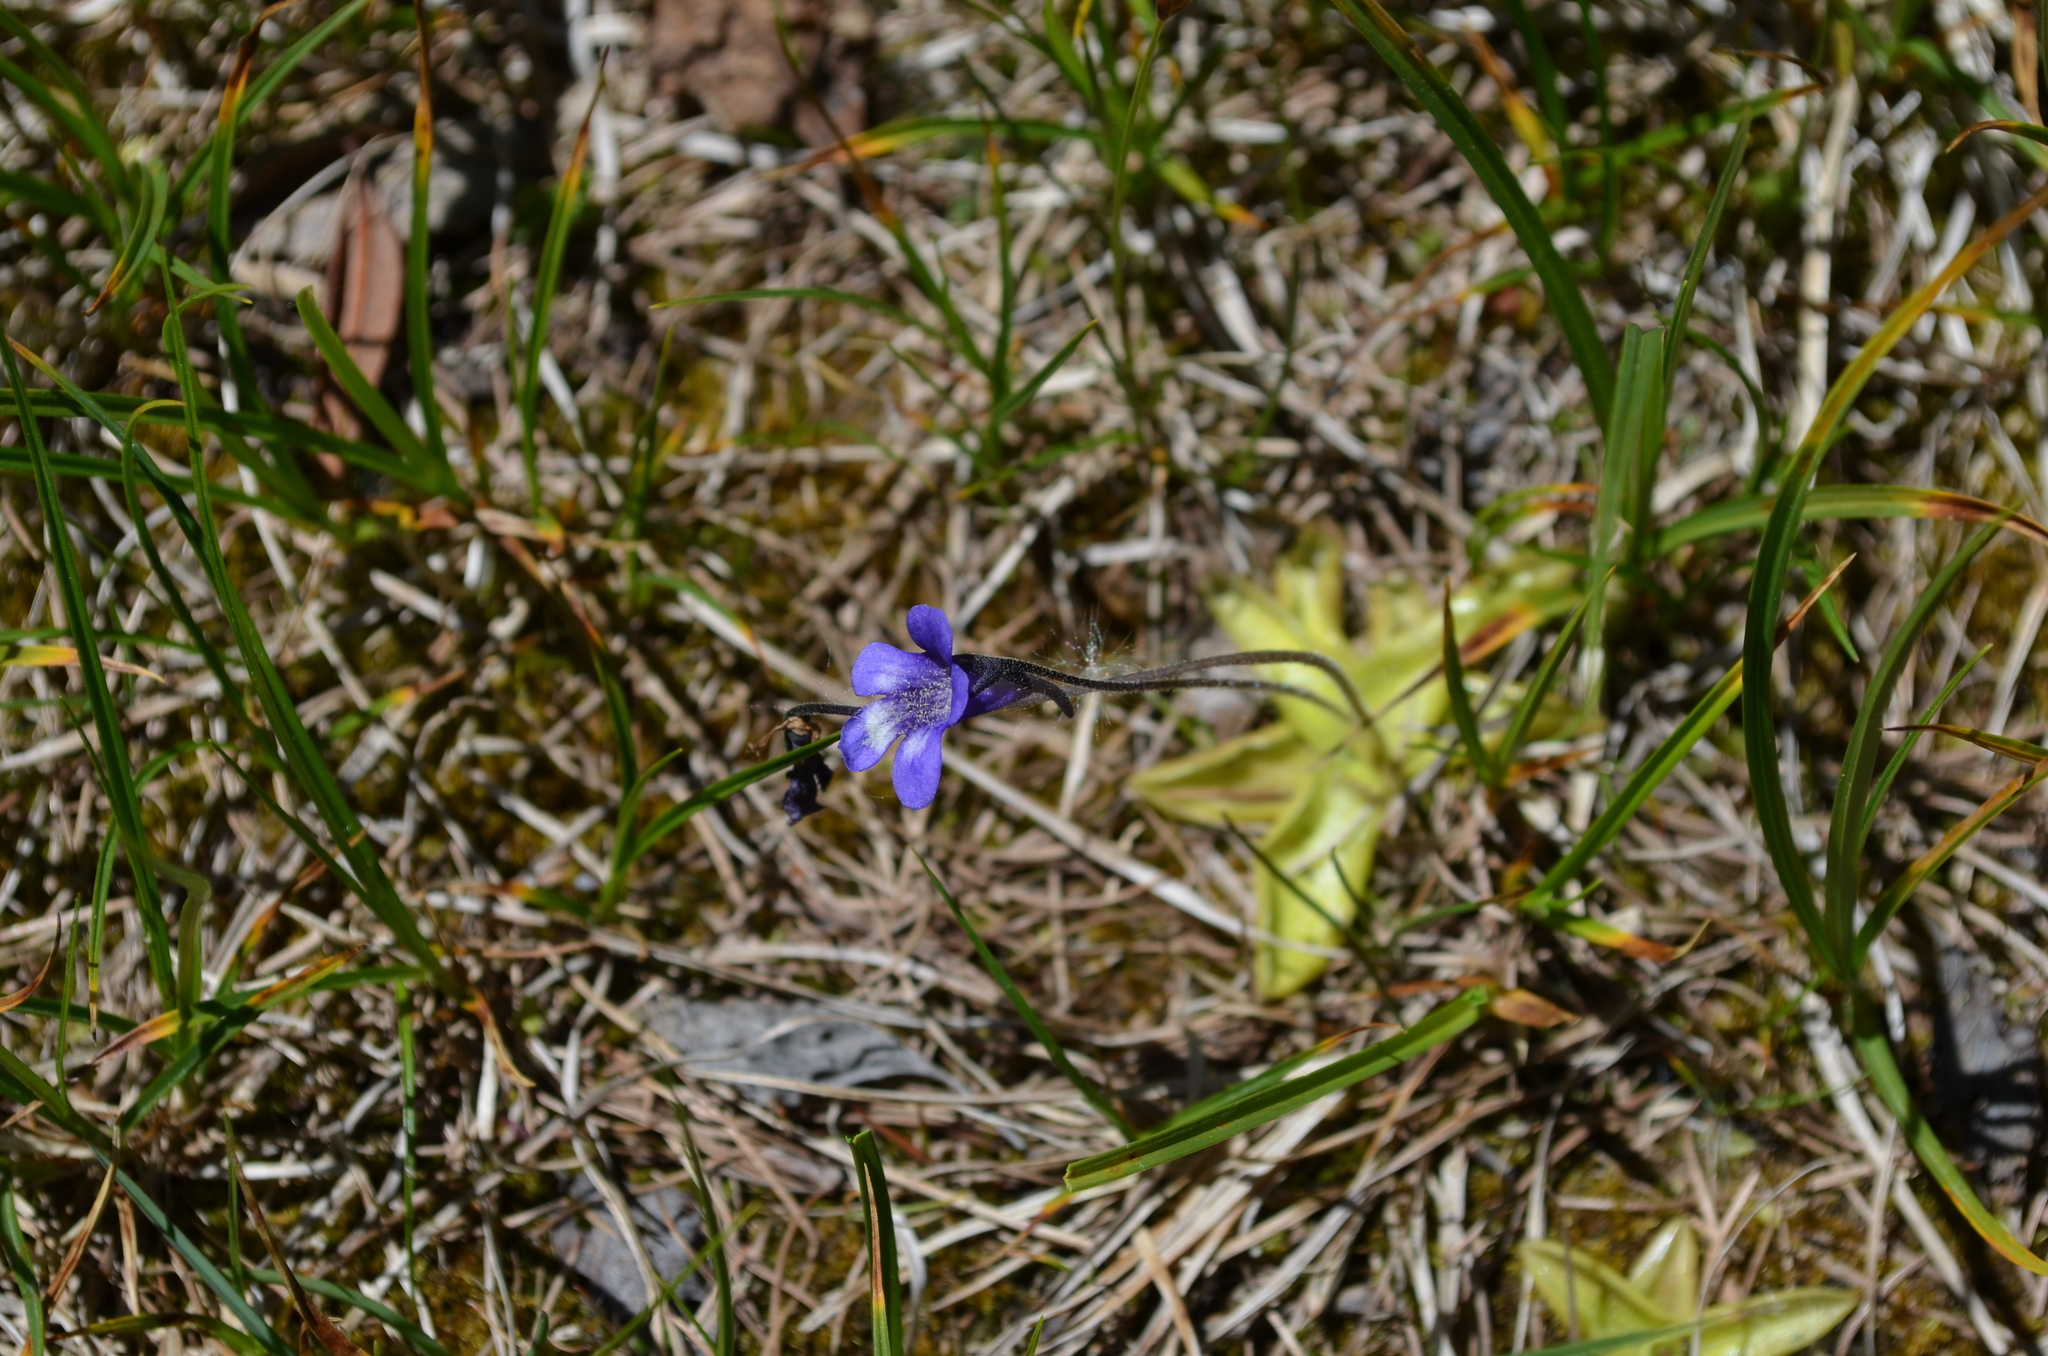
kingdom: Plantae
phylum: Tracheophyta
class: Magnoliopsida
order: Lamiales
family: Lentibulariaceae
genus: Pinguicula
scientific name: Pinguicula leptoceras
